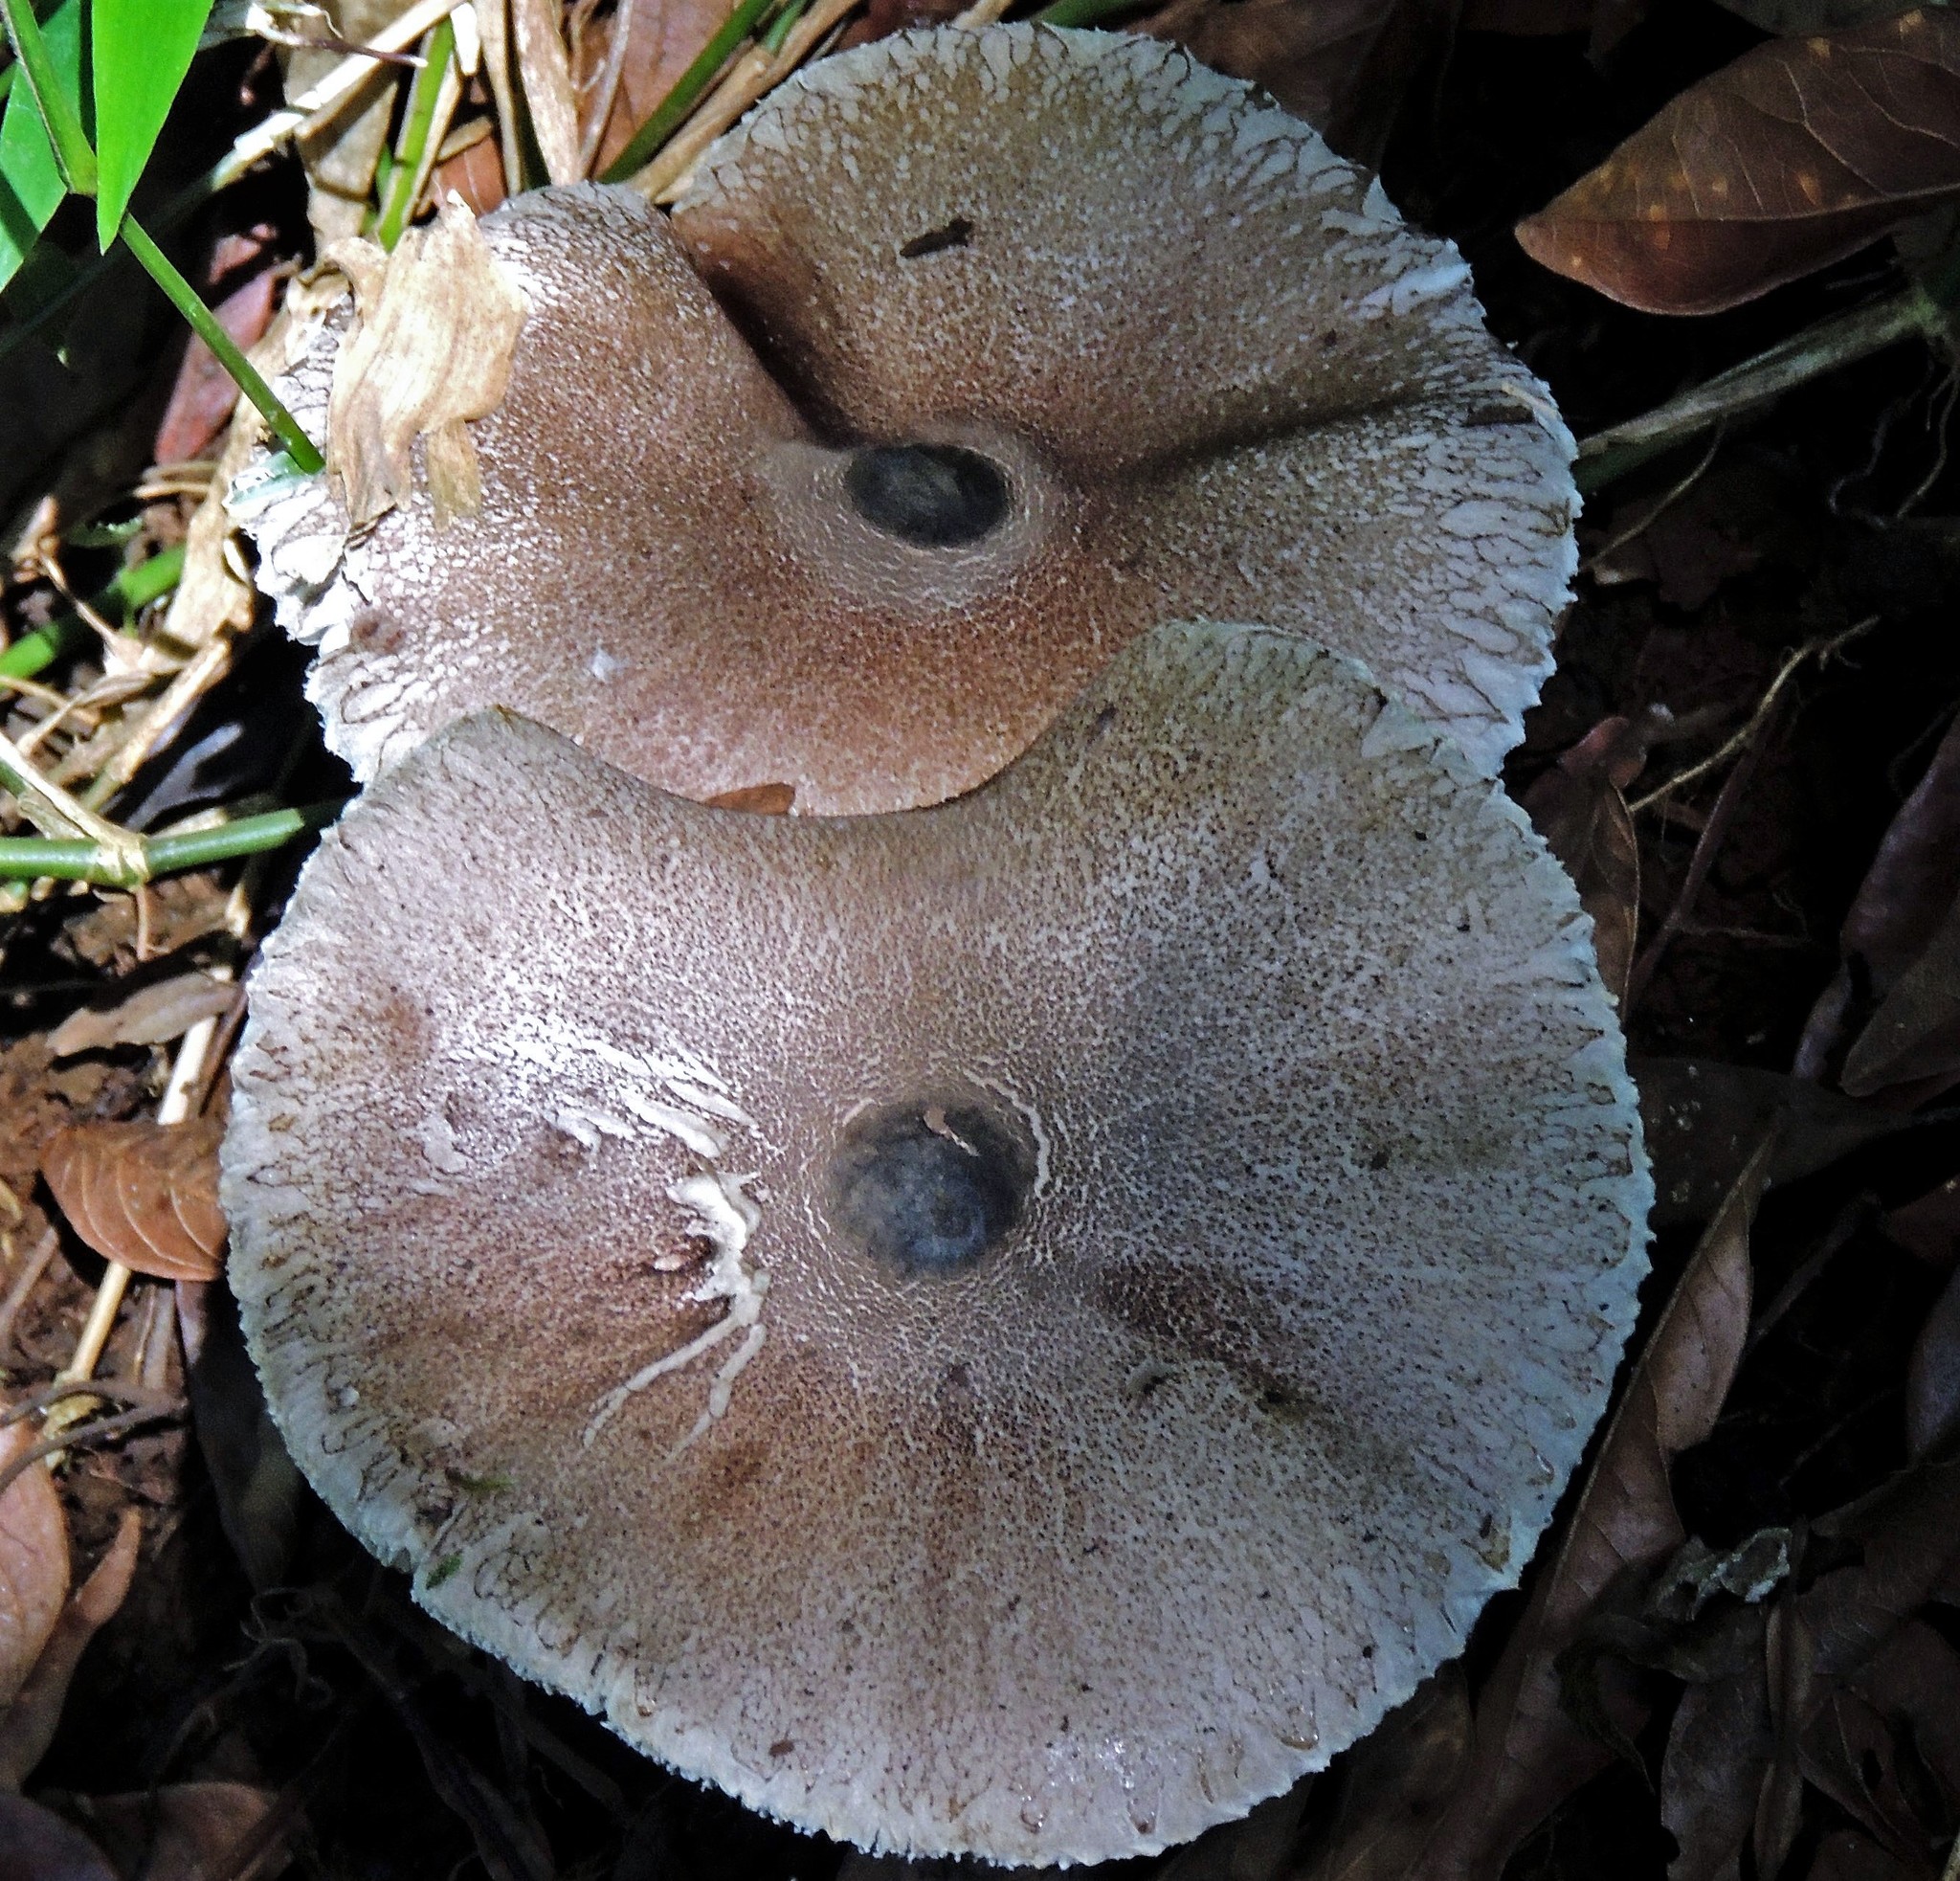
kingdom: Fungi
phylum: Basidiomycota
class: Agaricomycetes
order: Agaricales
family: Agaricaceae
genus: Macrolepiota
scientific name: Macrolepiota cyanolamellata
